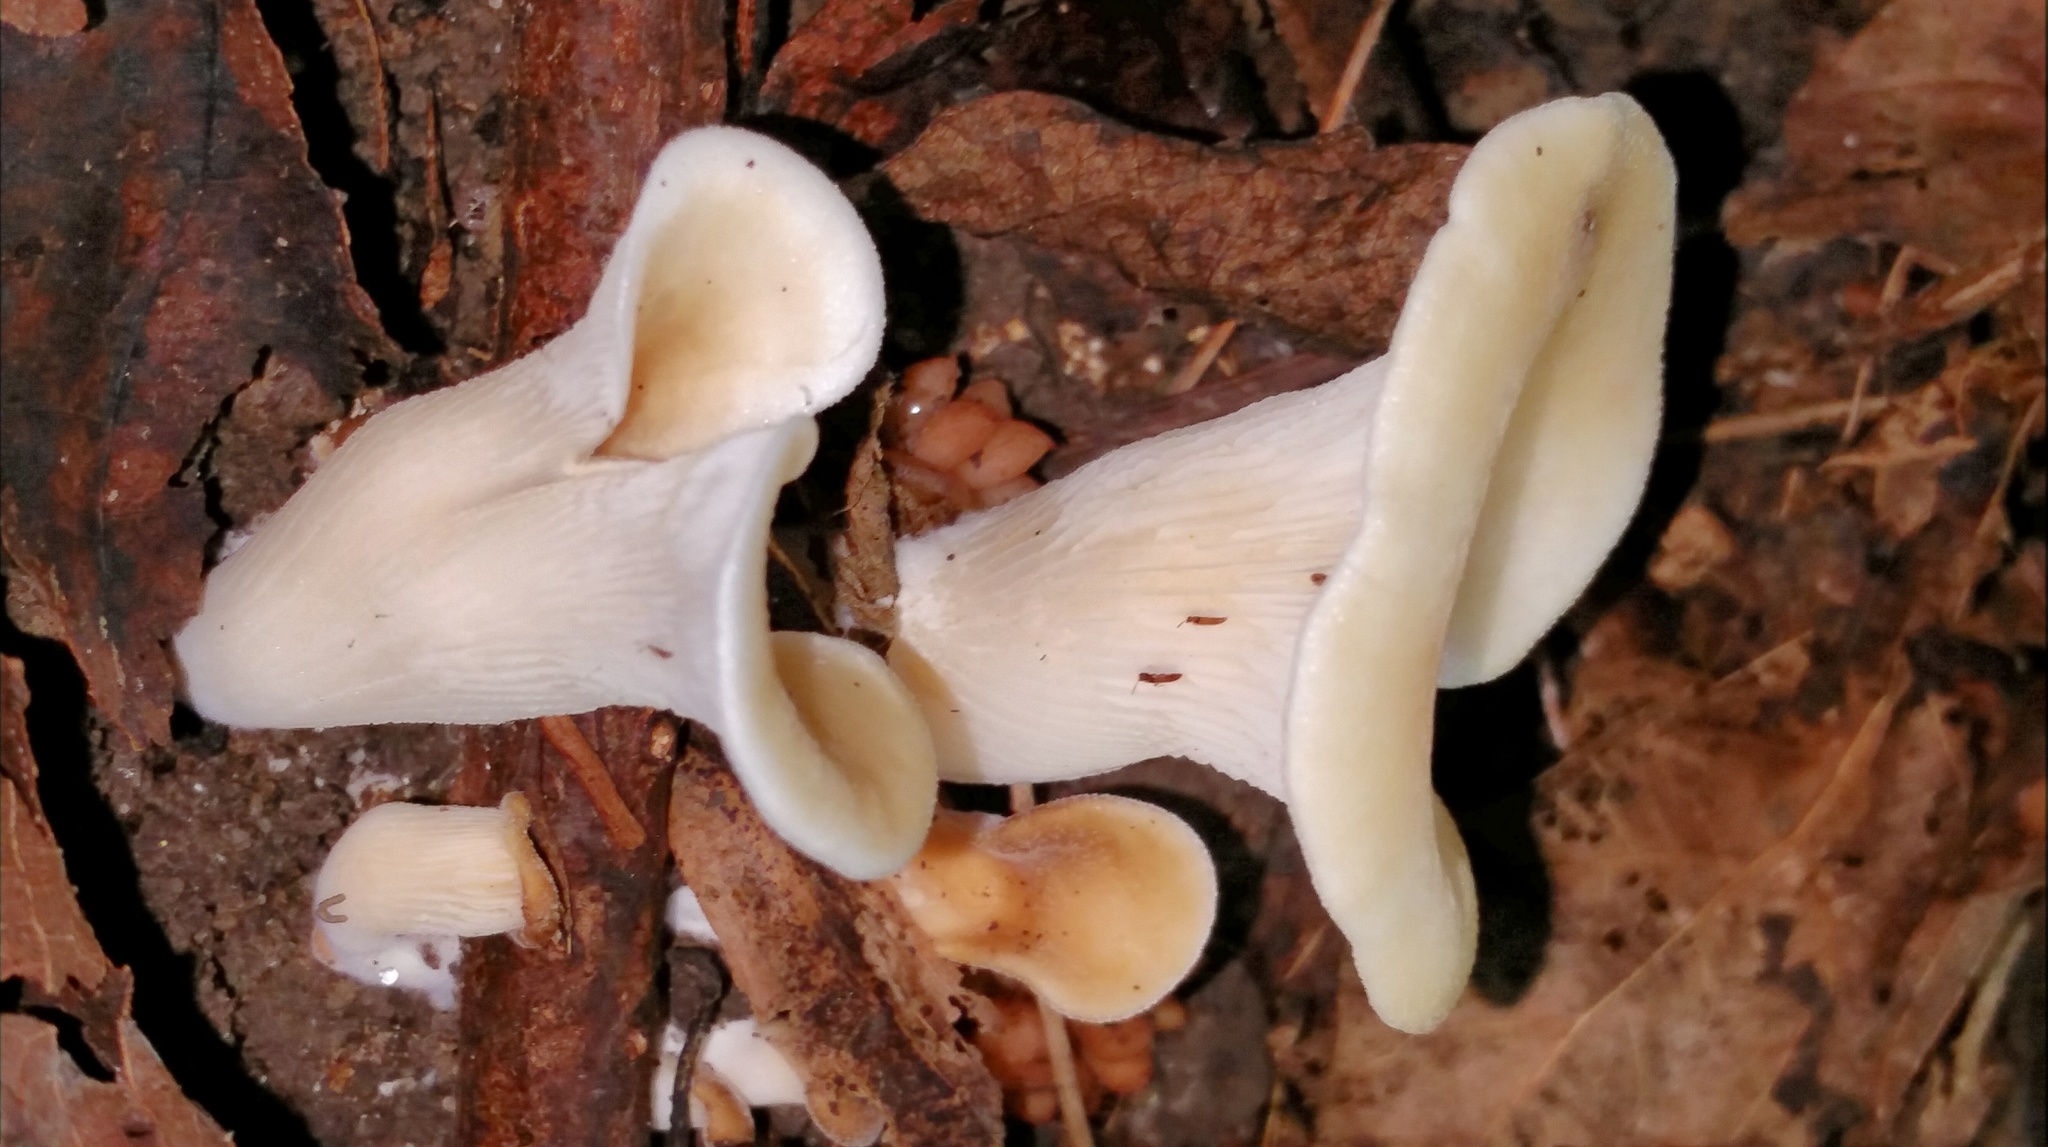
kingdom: Fungi
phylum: Basidiomycota
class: Agaricomycetes
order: Agaricales
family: Pleurotaceae
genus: Hohenbuehelia
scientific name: Hohenbuehelia petaloides
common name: Shoehorn oyster
